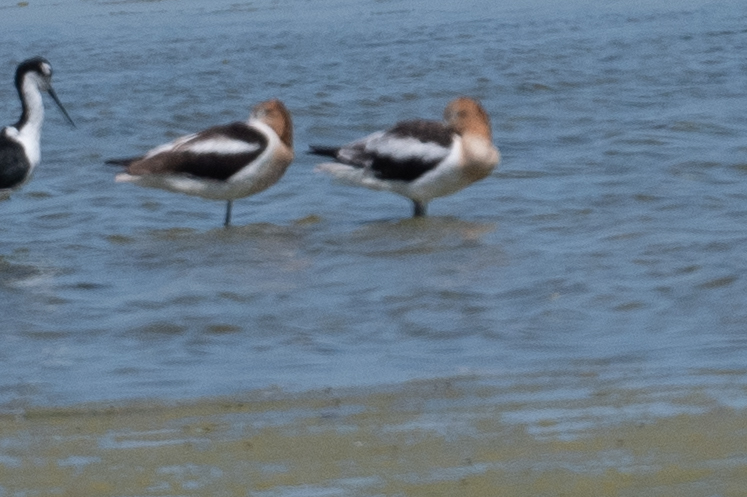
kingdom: Animalia
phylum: Chordata
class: Aves
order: Charadriiformes
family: Recurvirostridae
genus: Recurvirostra
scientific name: Recurvirostra americana
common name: American avocet
